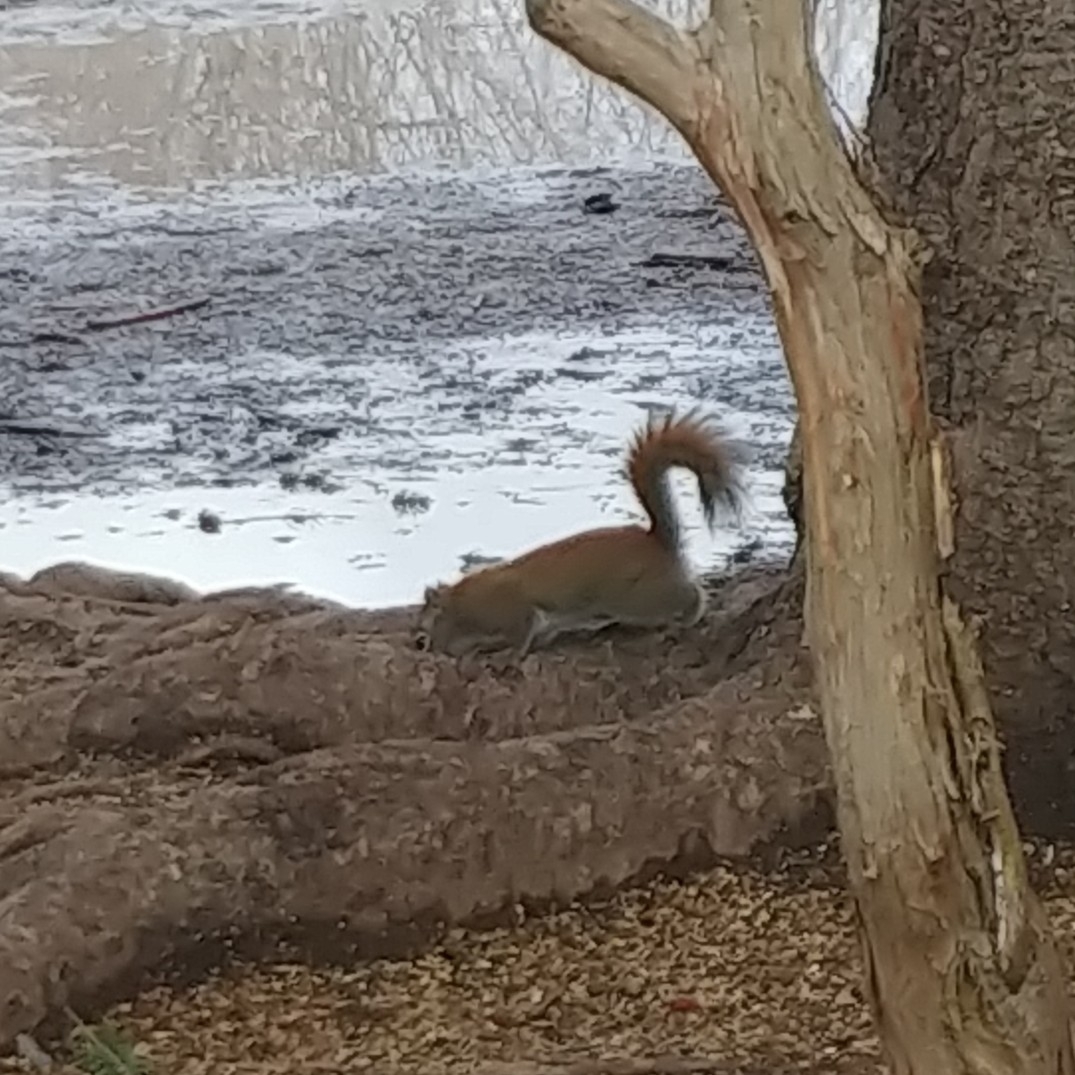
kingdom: Animalia
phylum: Chordata
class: Mammalia
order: Rodentia
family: Sciuridae
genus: Tamiasciurus
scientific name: Tamiasciurus hudsonicus
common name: Red squirrel
